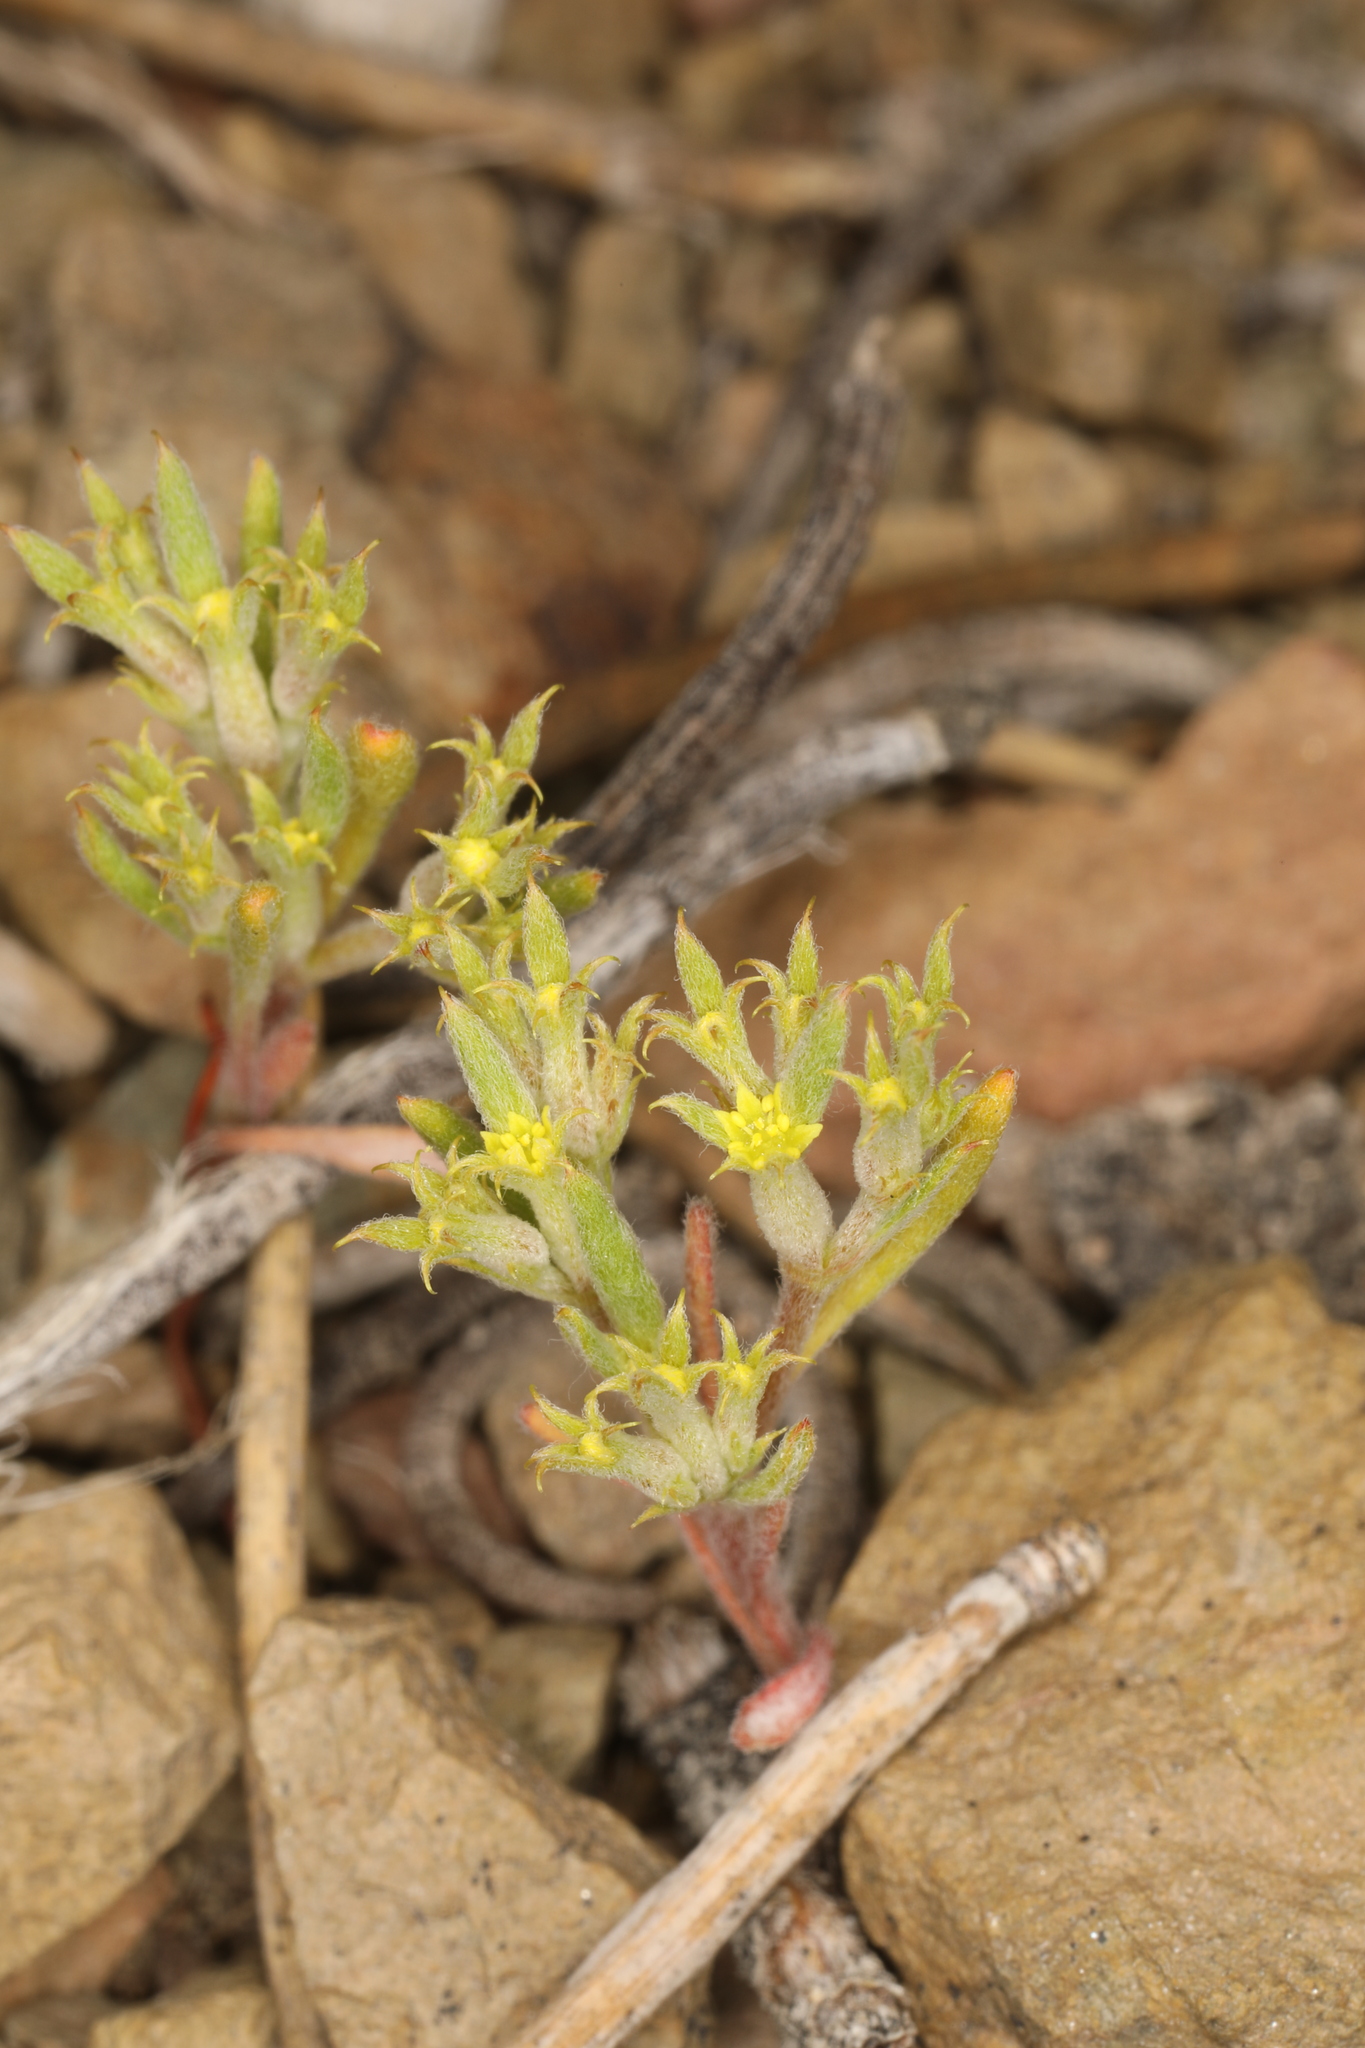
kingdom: Plantae
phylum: Tracheophyta
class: Magnoliopsida
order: Caryophyllales
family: Polygonaceae
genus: Chorizanthe
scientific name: Chorizanthe watsonii
